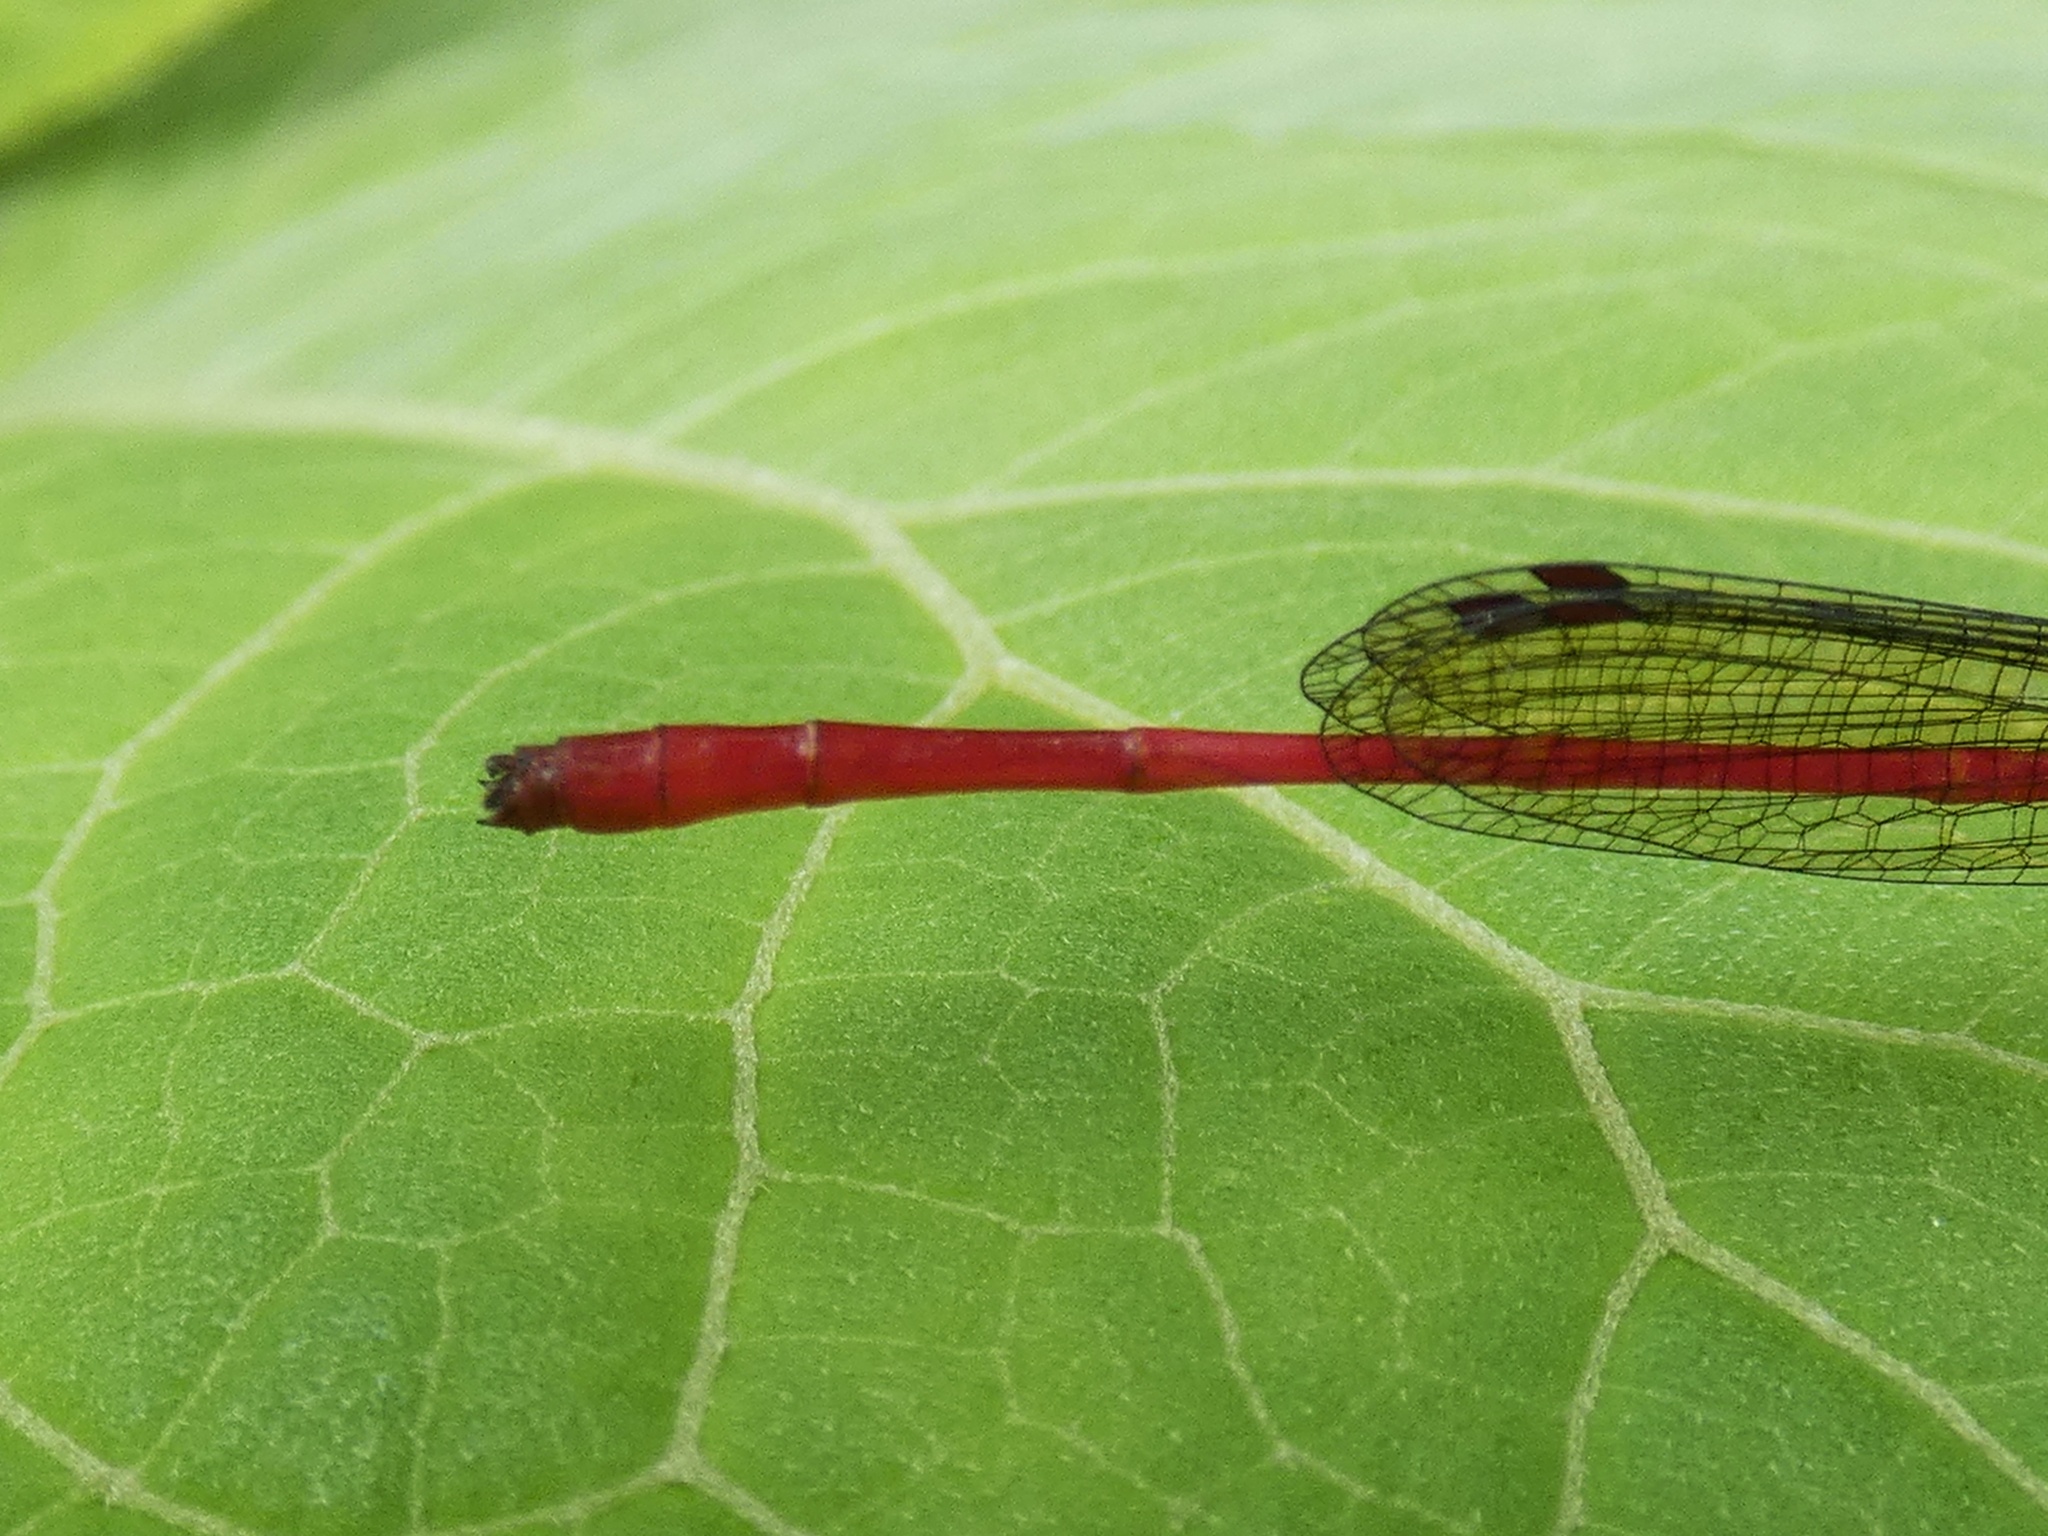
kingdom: Animalia
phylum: Arthropoda
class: Insecta
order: Odonata
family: Coenagrionidae
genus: Telebasis
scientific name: Telebasis garleppi
